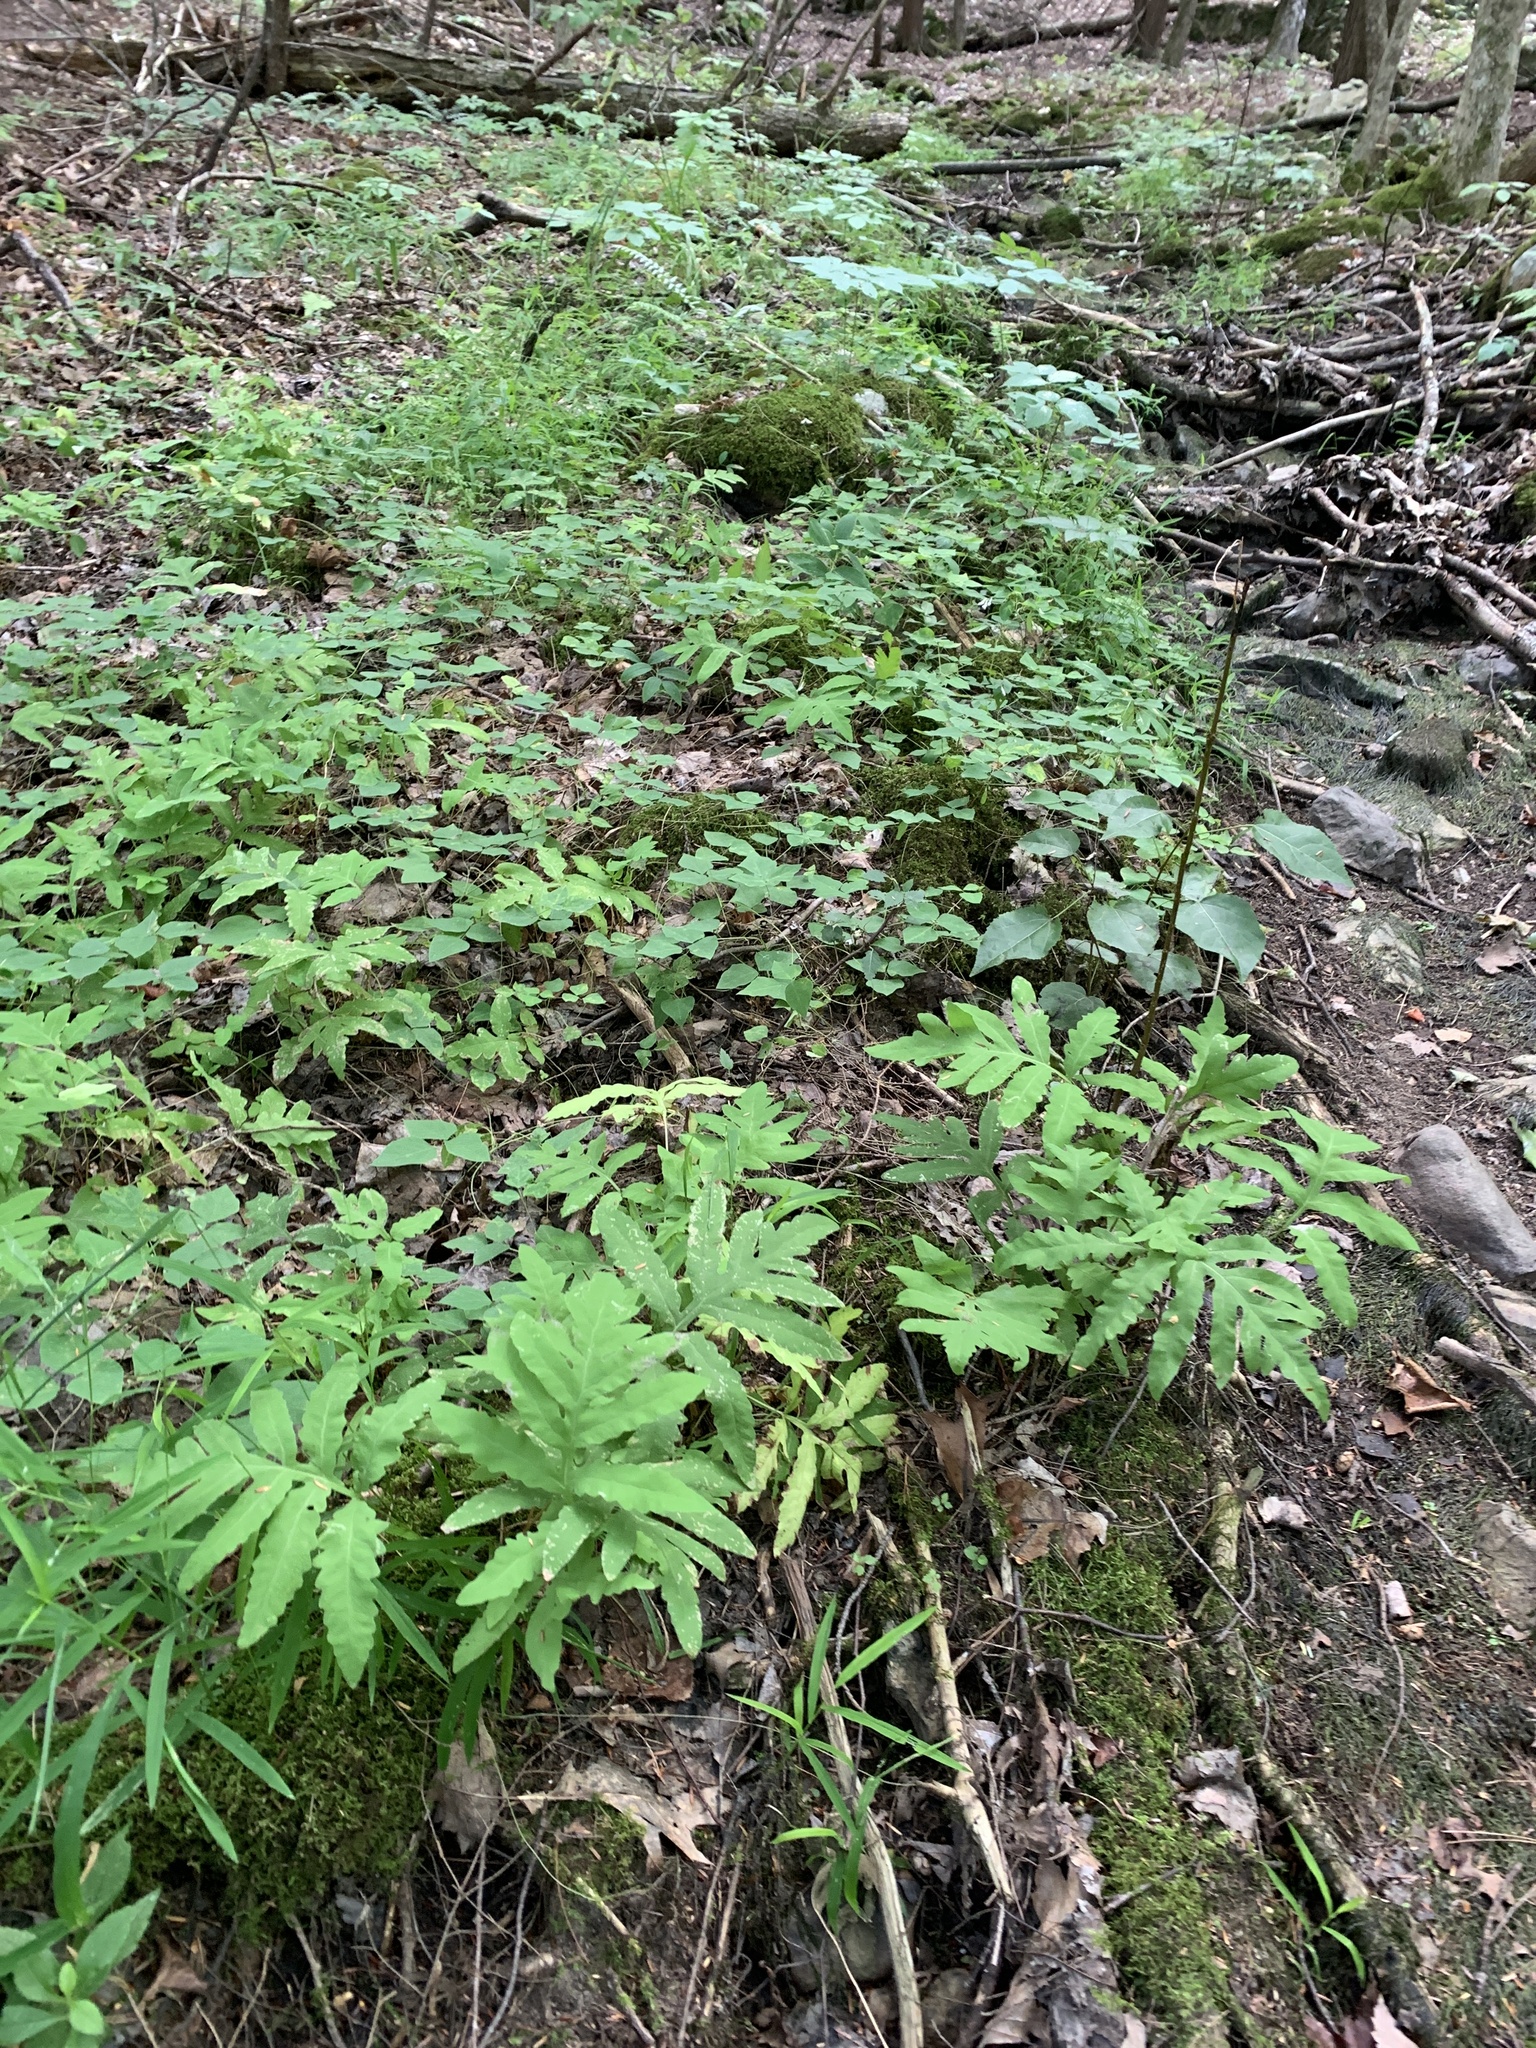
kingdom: Plantae
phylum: Tracheophyta
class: Polypodiopsida
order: Polypodiales
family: Onocleaceae
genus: Onoclea
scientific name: Onoclea sensibilis
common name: Sensitive fern
